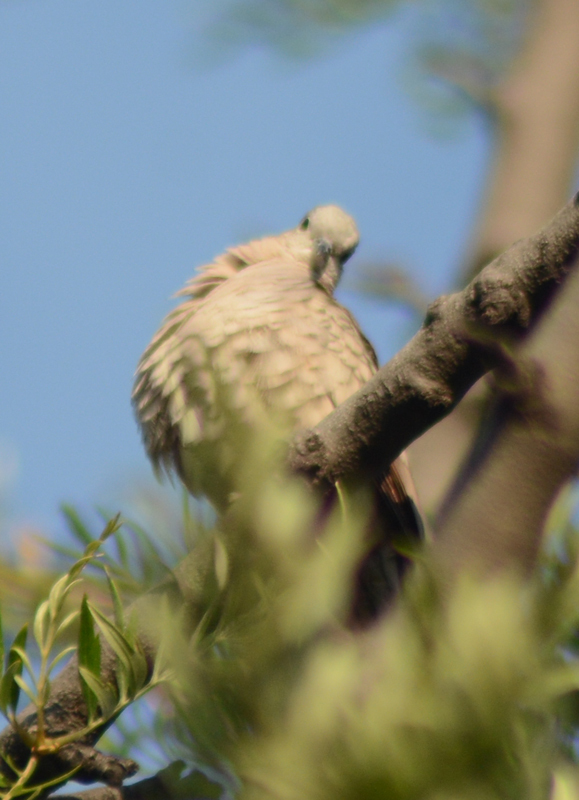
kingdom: Animalia
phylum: Chordata
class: Aves
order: Columbiformes
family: Columbidae
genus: Columbina
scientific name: Columbina inca
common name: Inca dove
